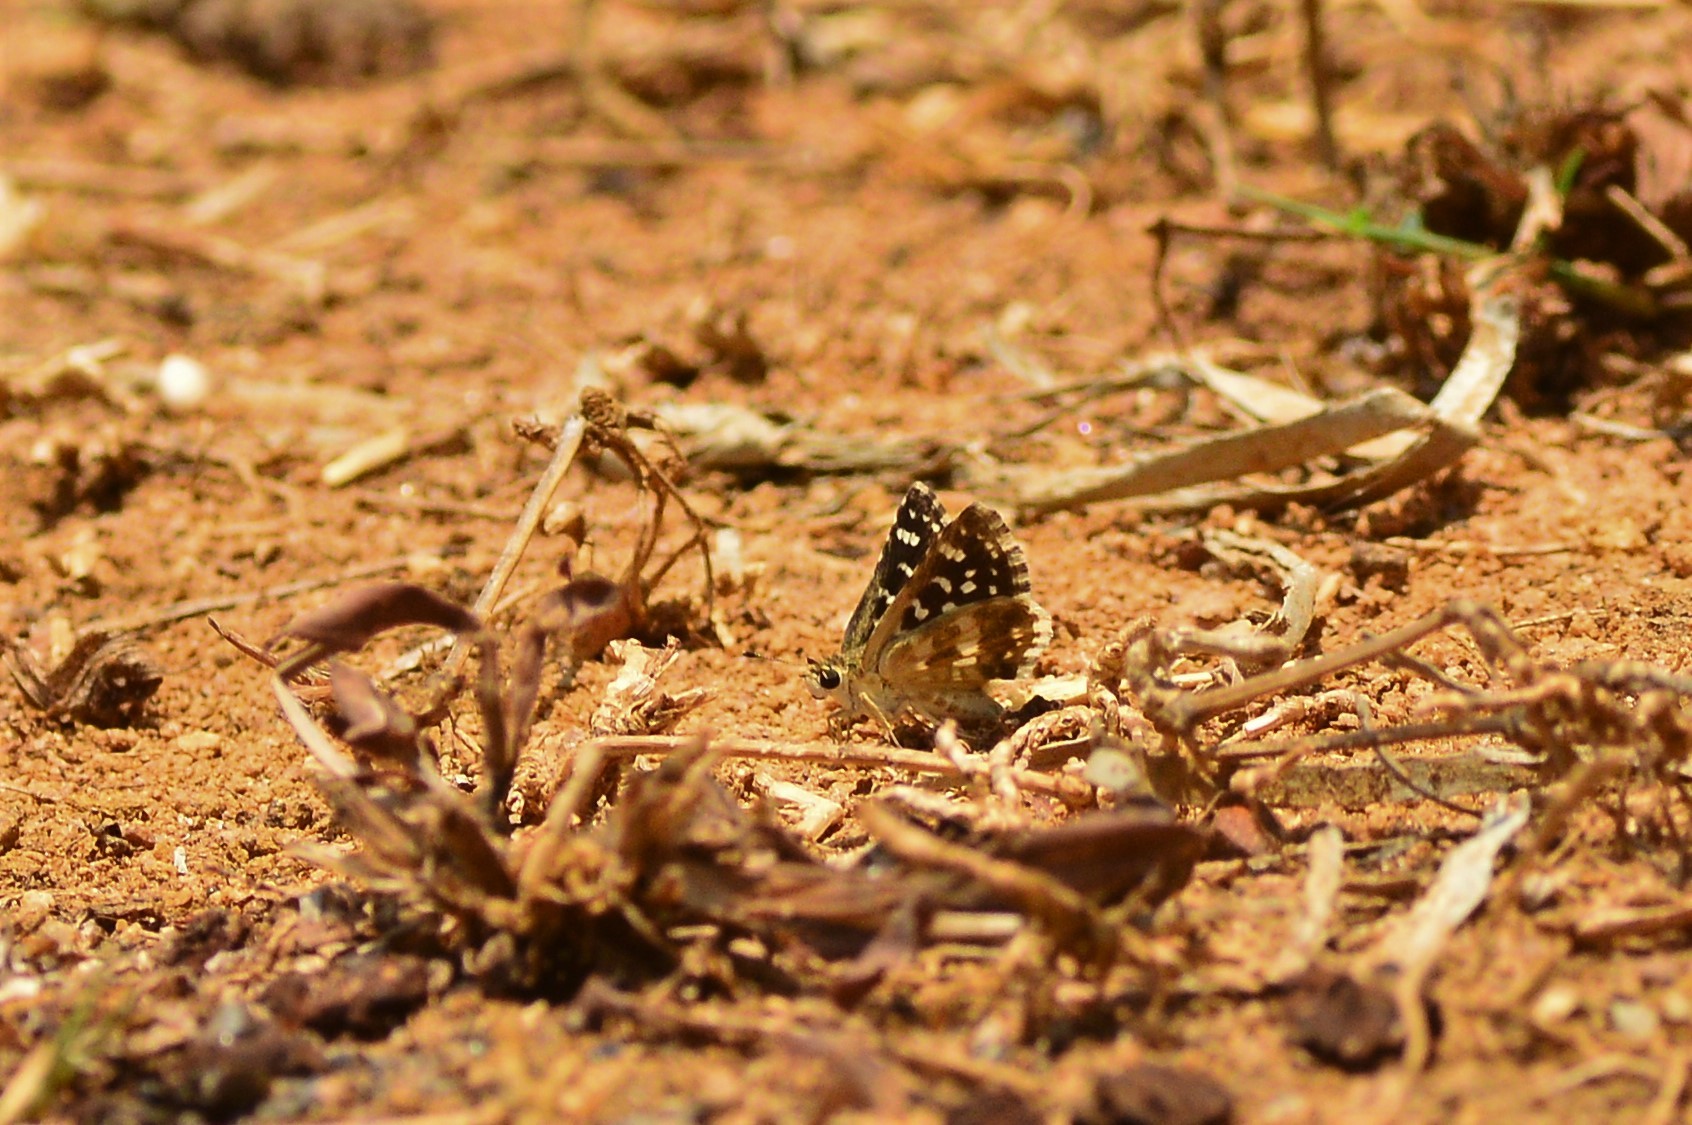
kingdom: Animalia
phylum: Arthropoda
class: Insecta
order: Lepidoptera
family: Hesperiidae
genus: Spialia
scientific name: Spialia galba
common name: Indian skipper
